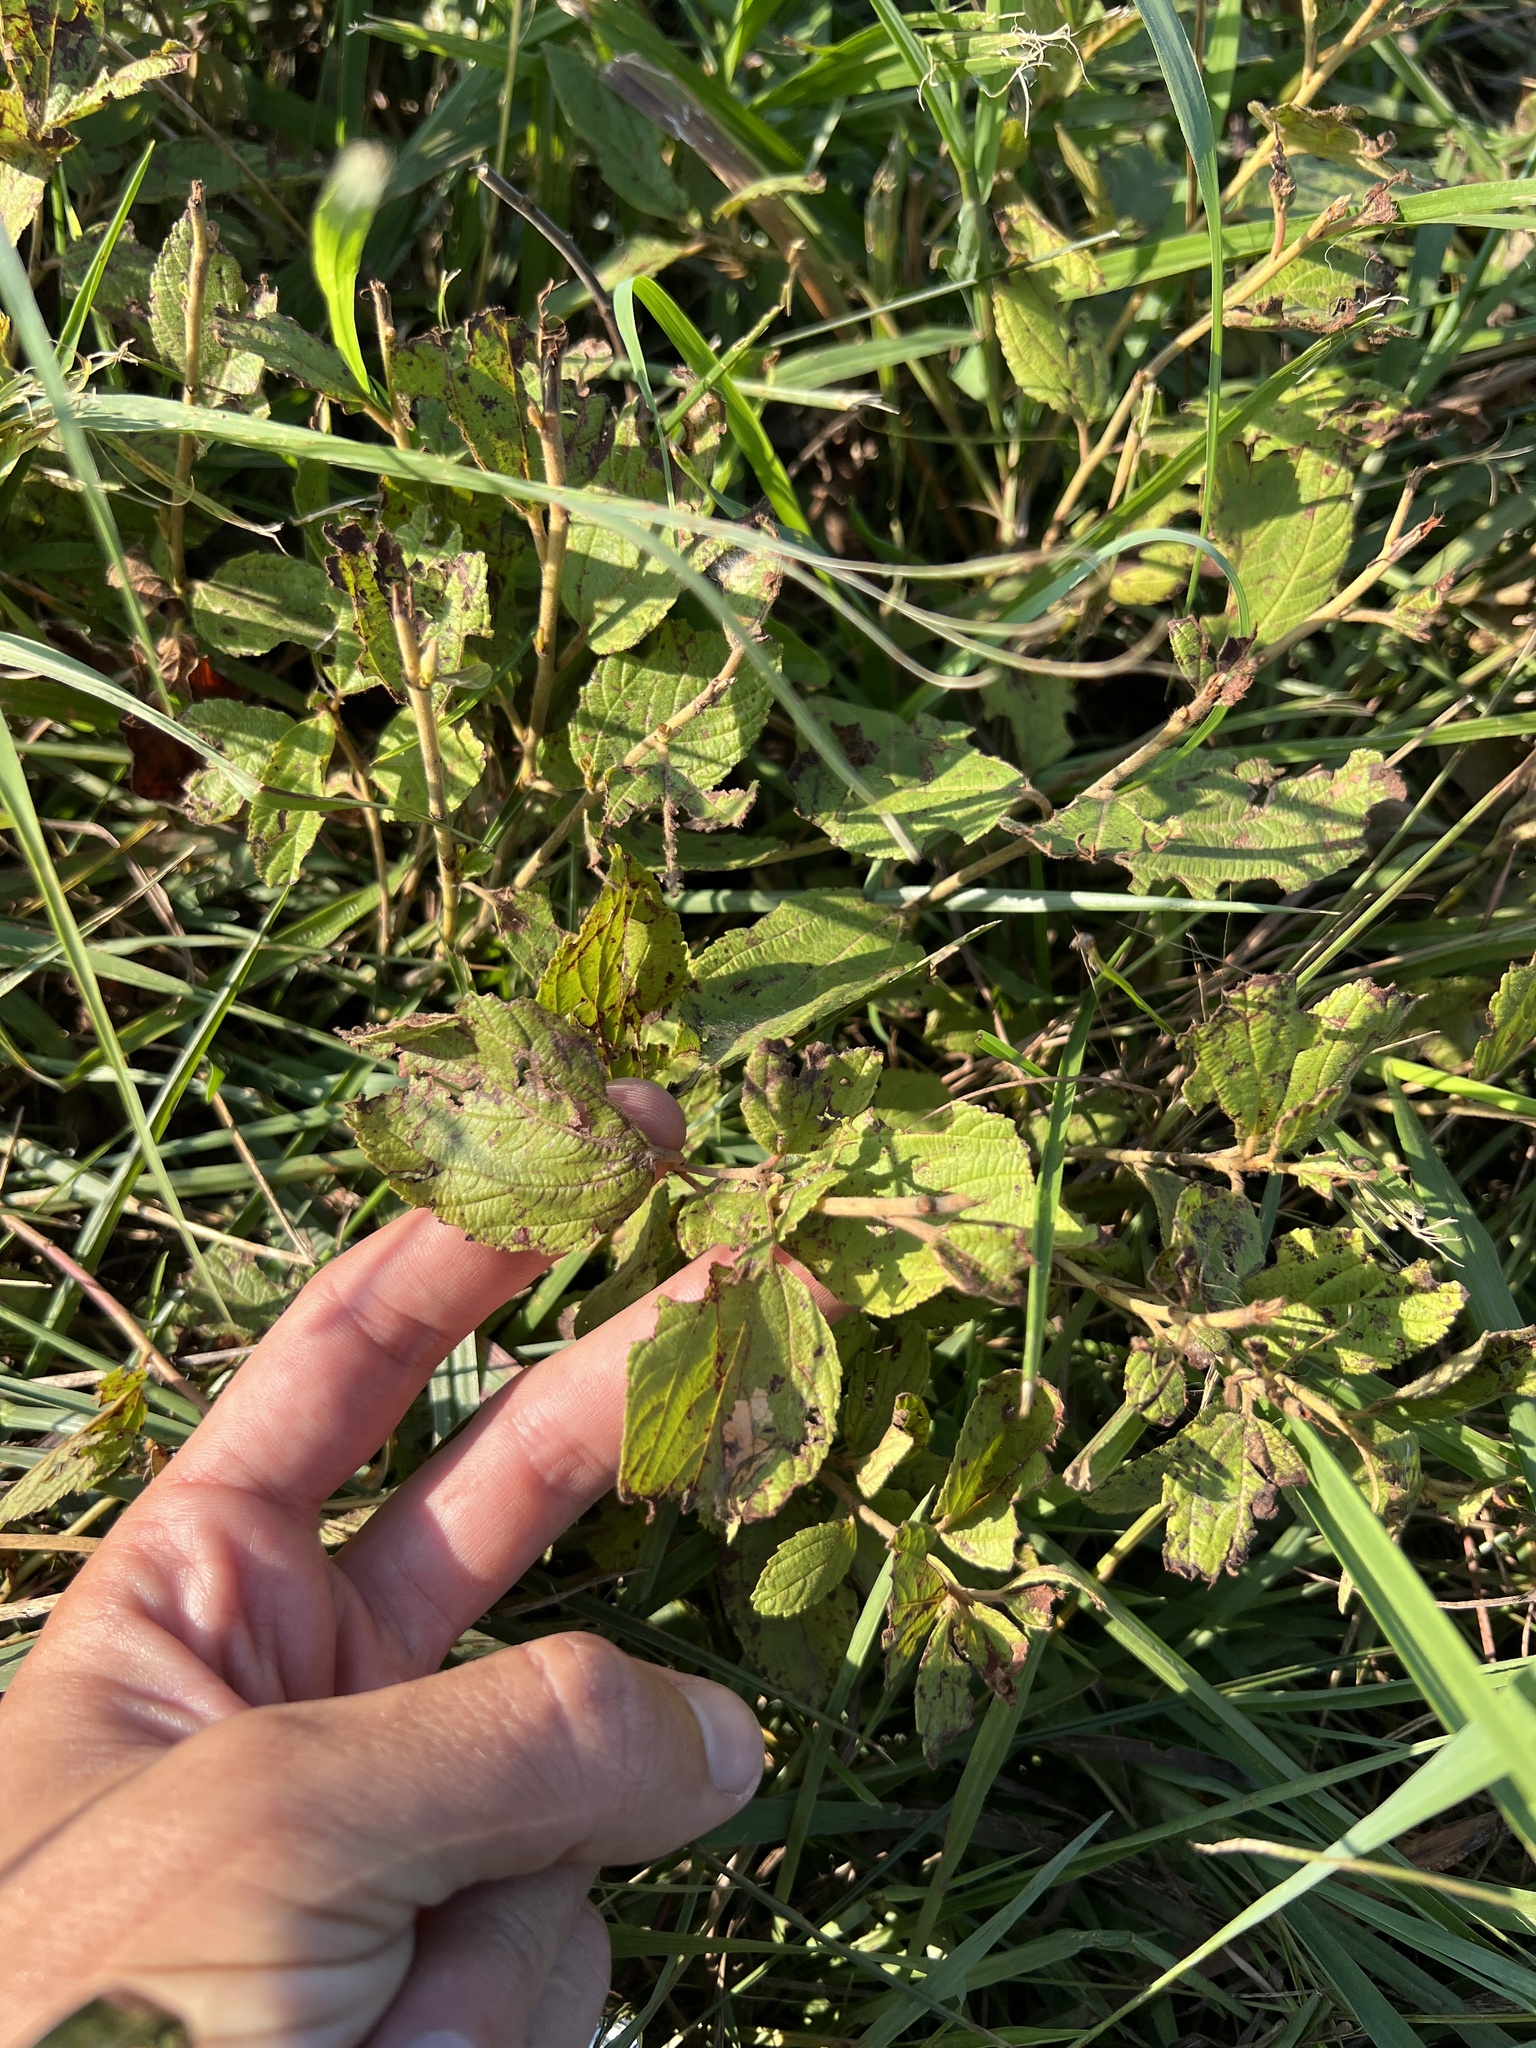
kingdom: Plantae
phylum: Tracheophyta
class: Magnoliopsida
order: Rosales
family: Rhamnaceae
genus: Ceanothus
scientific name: Ceanothus americanus
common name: Redroot
